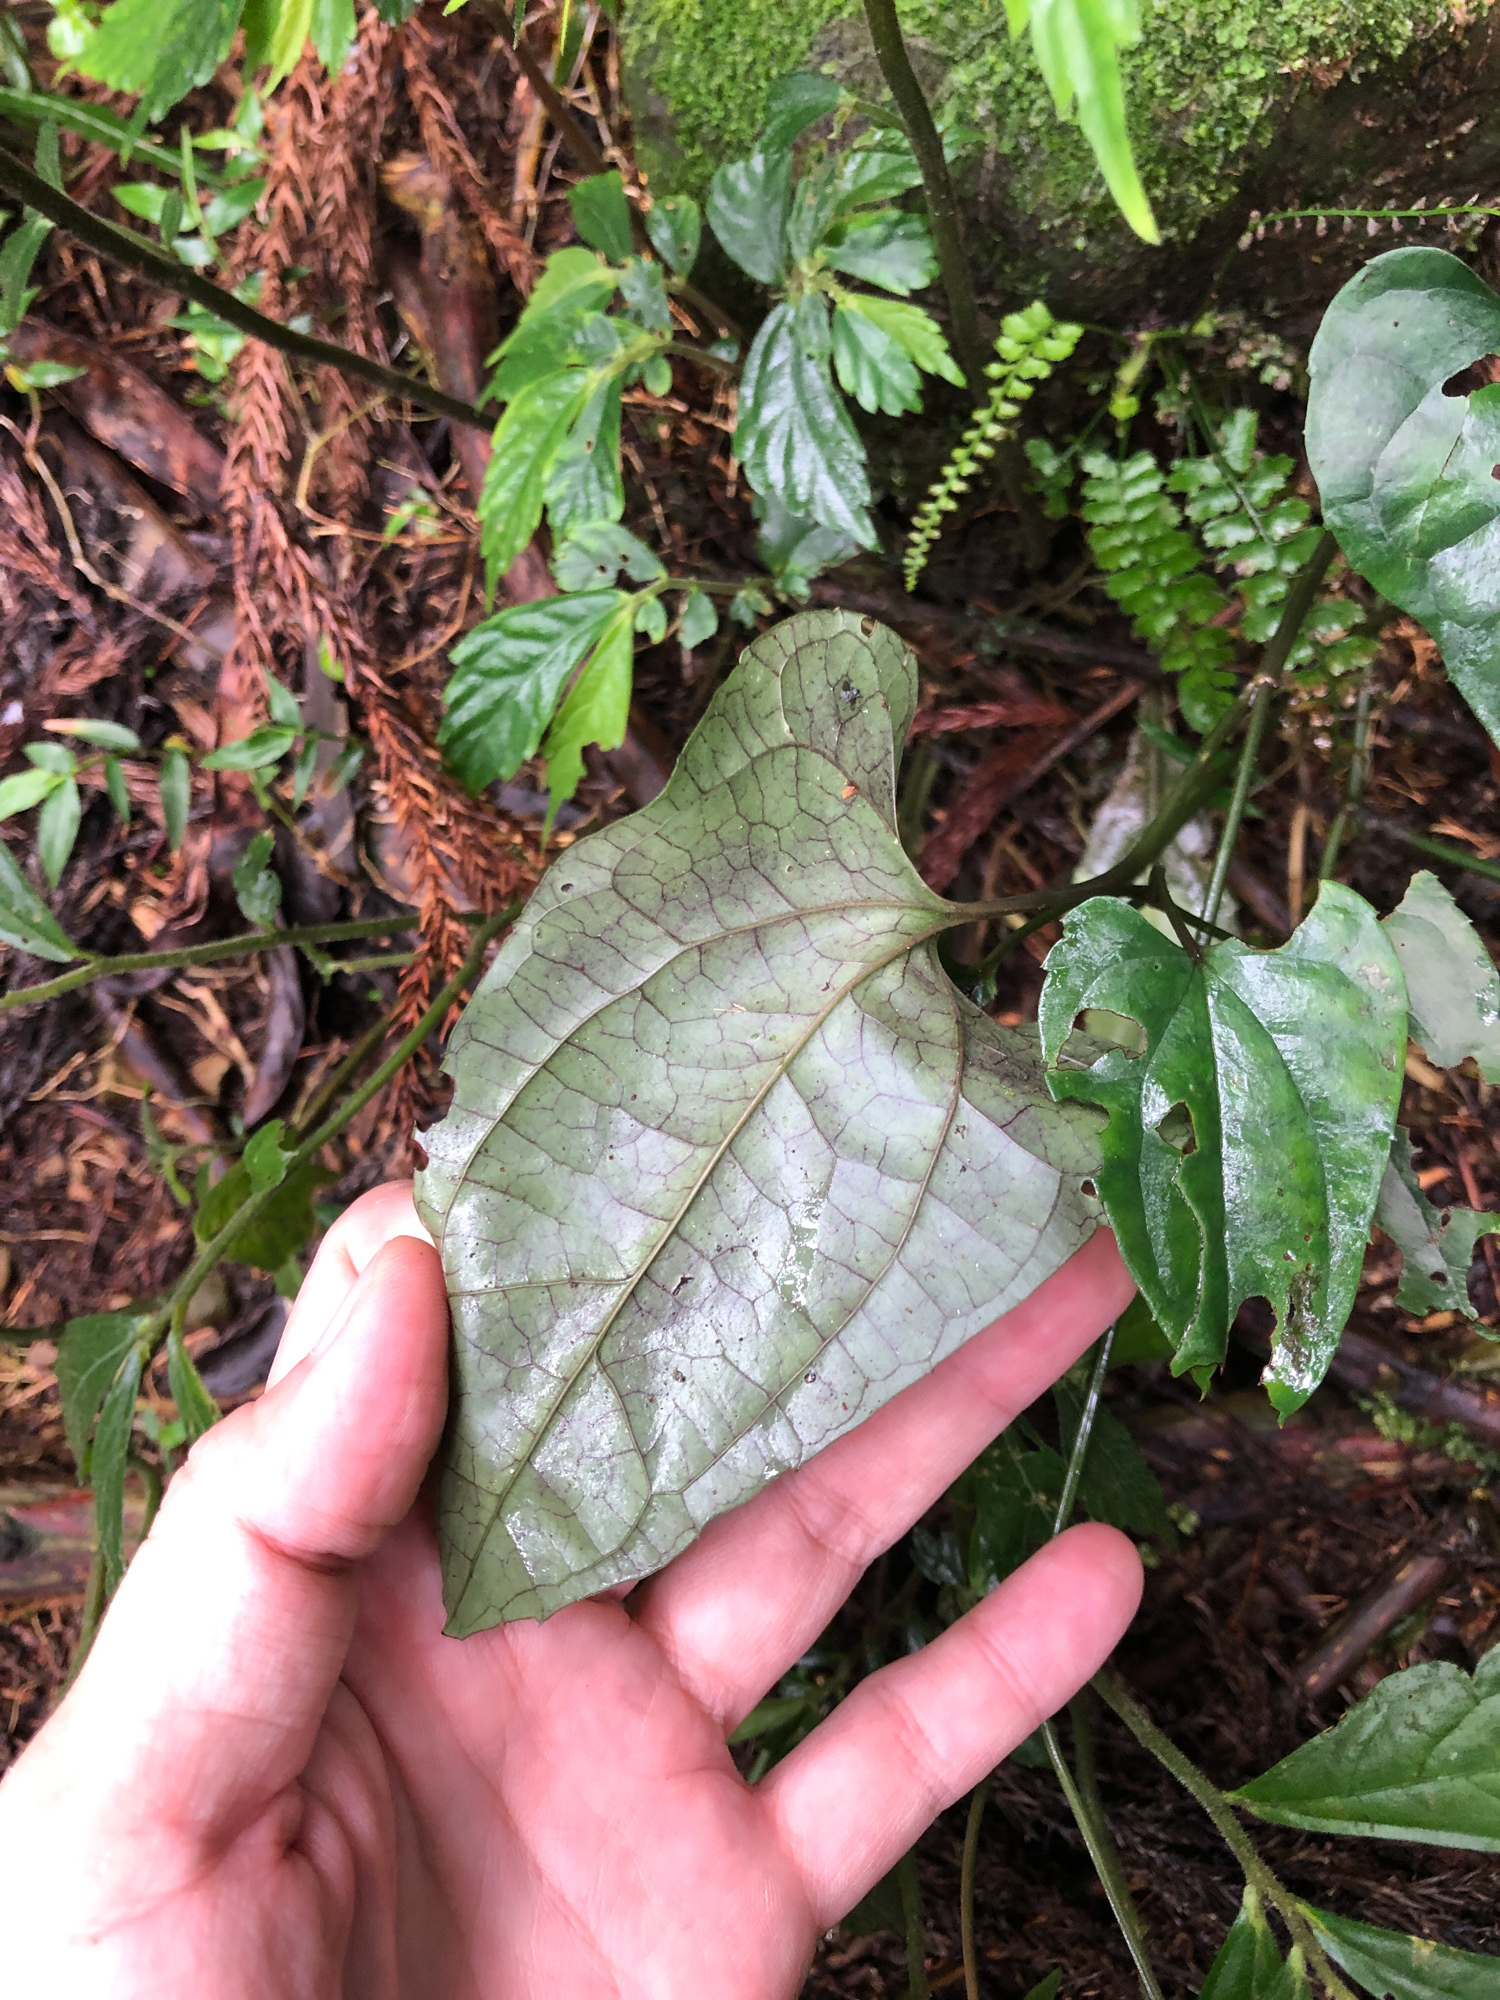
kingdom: Plantae
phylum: Tracheophyta
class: Magnoliopsida
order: Piperales
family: Aristolochiaceae
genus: Asarum
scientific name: Asarum hypogynum
